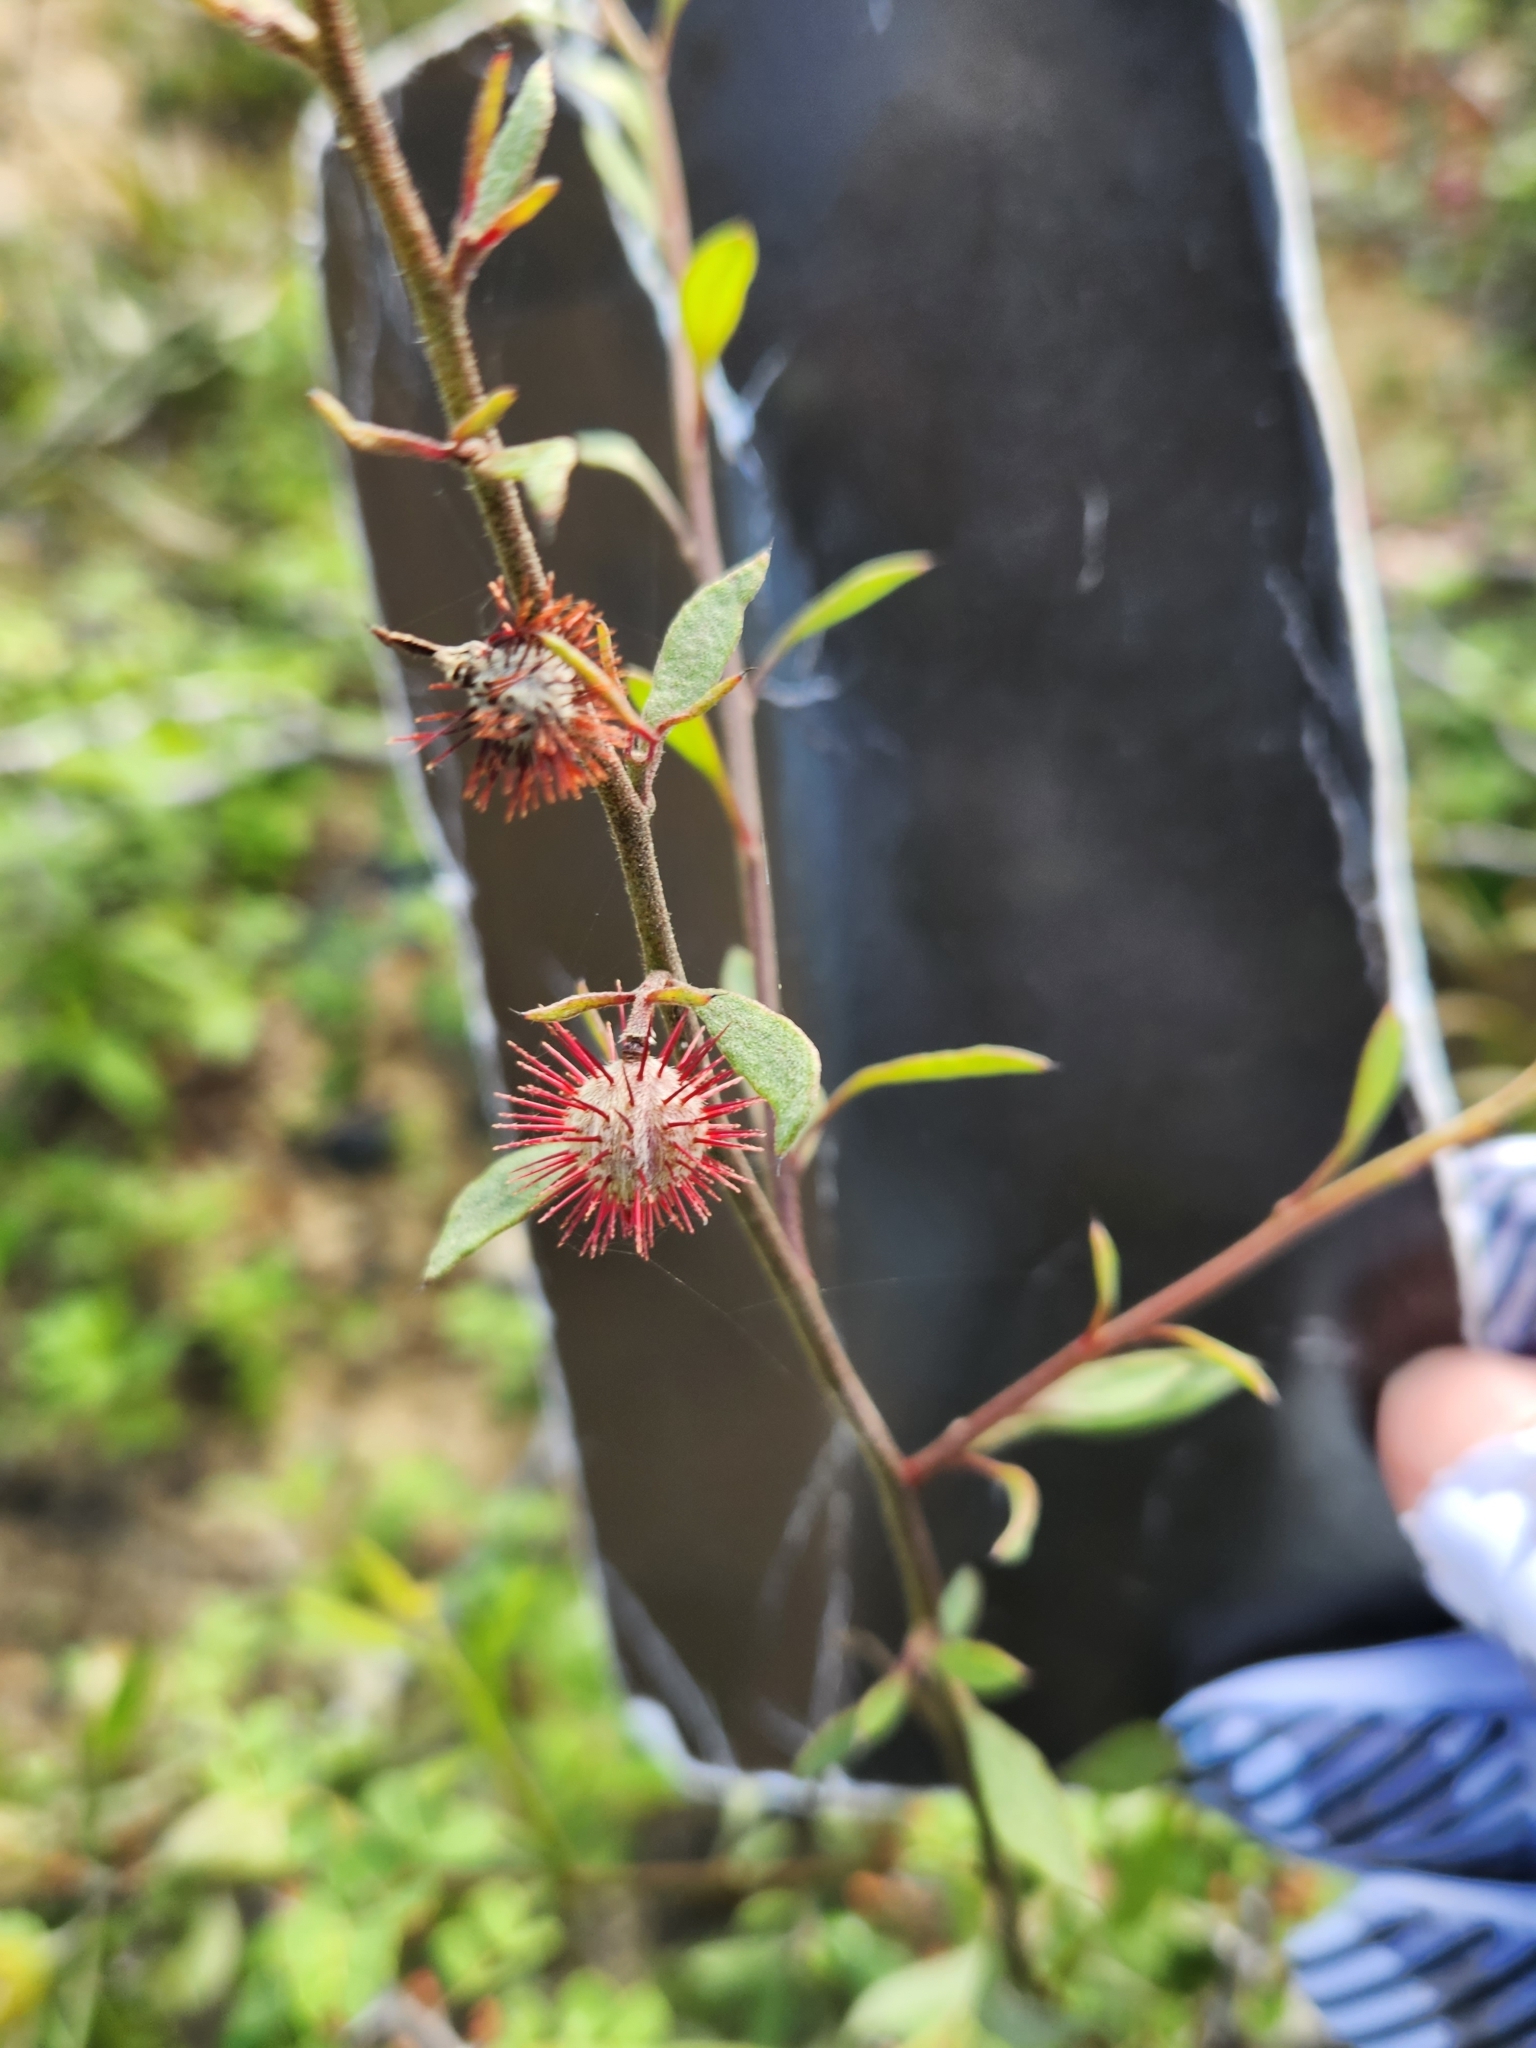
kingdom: Plantae
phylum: Tracheophyta
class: Magnoliopsida
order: Zygophyllales
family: Krameriaceae
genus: Krameria
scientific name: Krameria ixine
